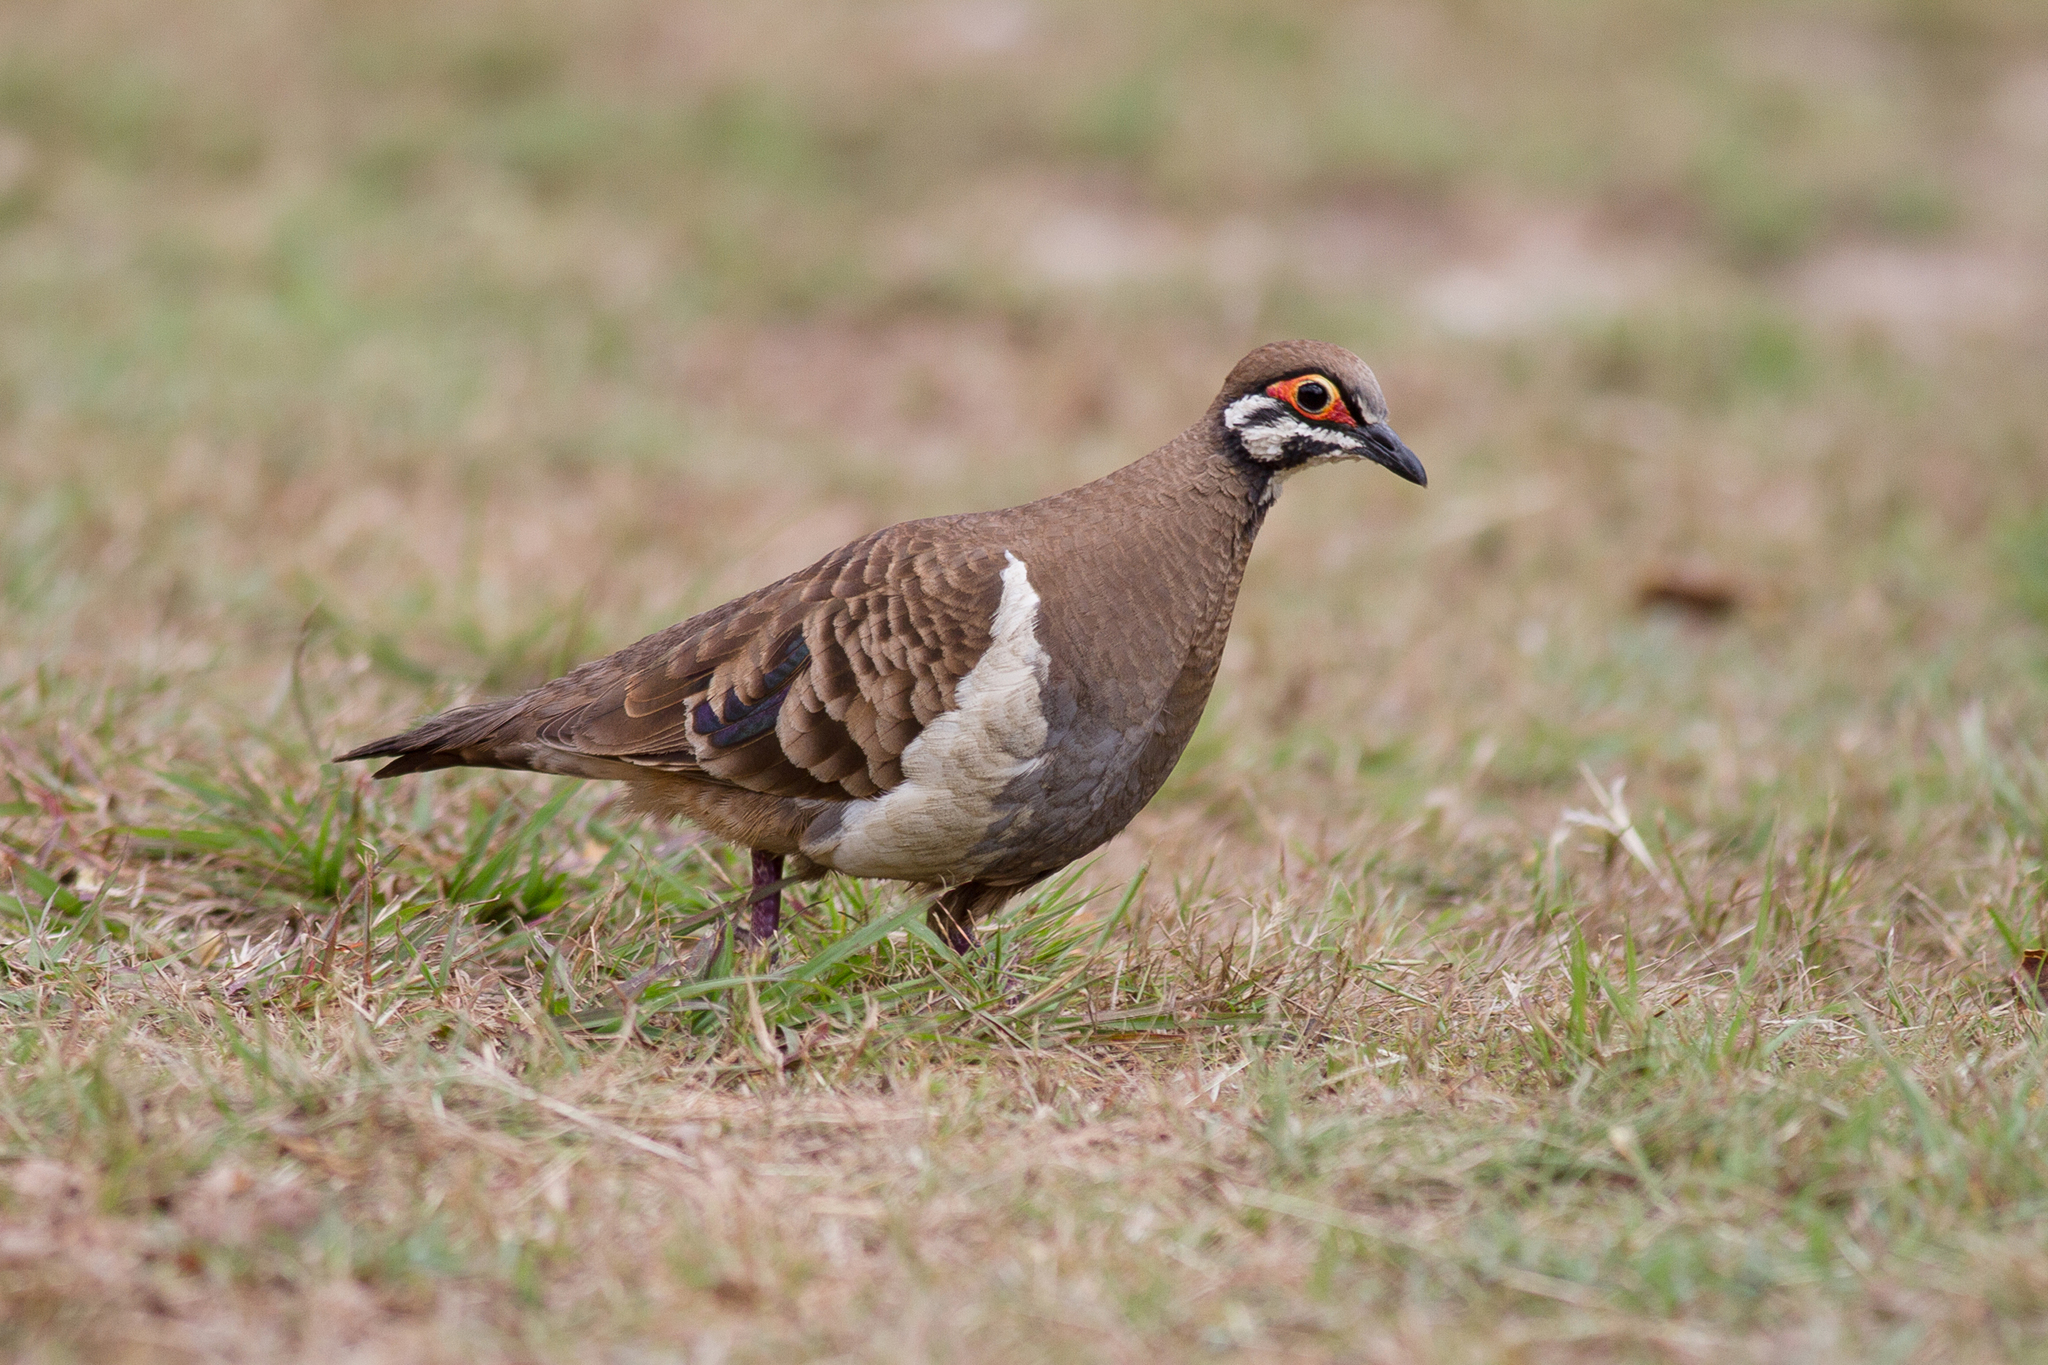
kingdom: Animalia
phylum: Chordata
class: Aves
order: Columbiformes
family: Columbidae
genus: Geophaps
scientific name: Geophaps scripta
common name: Squatter pigeon
